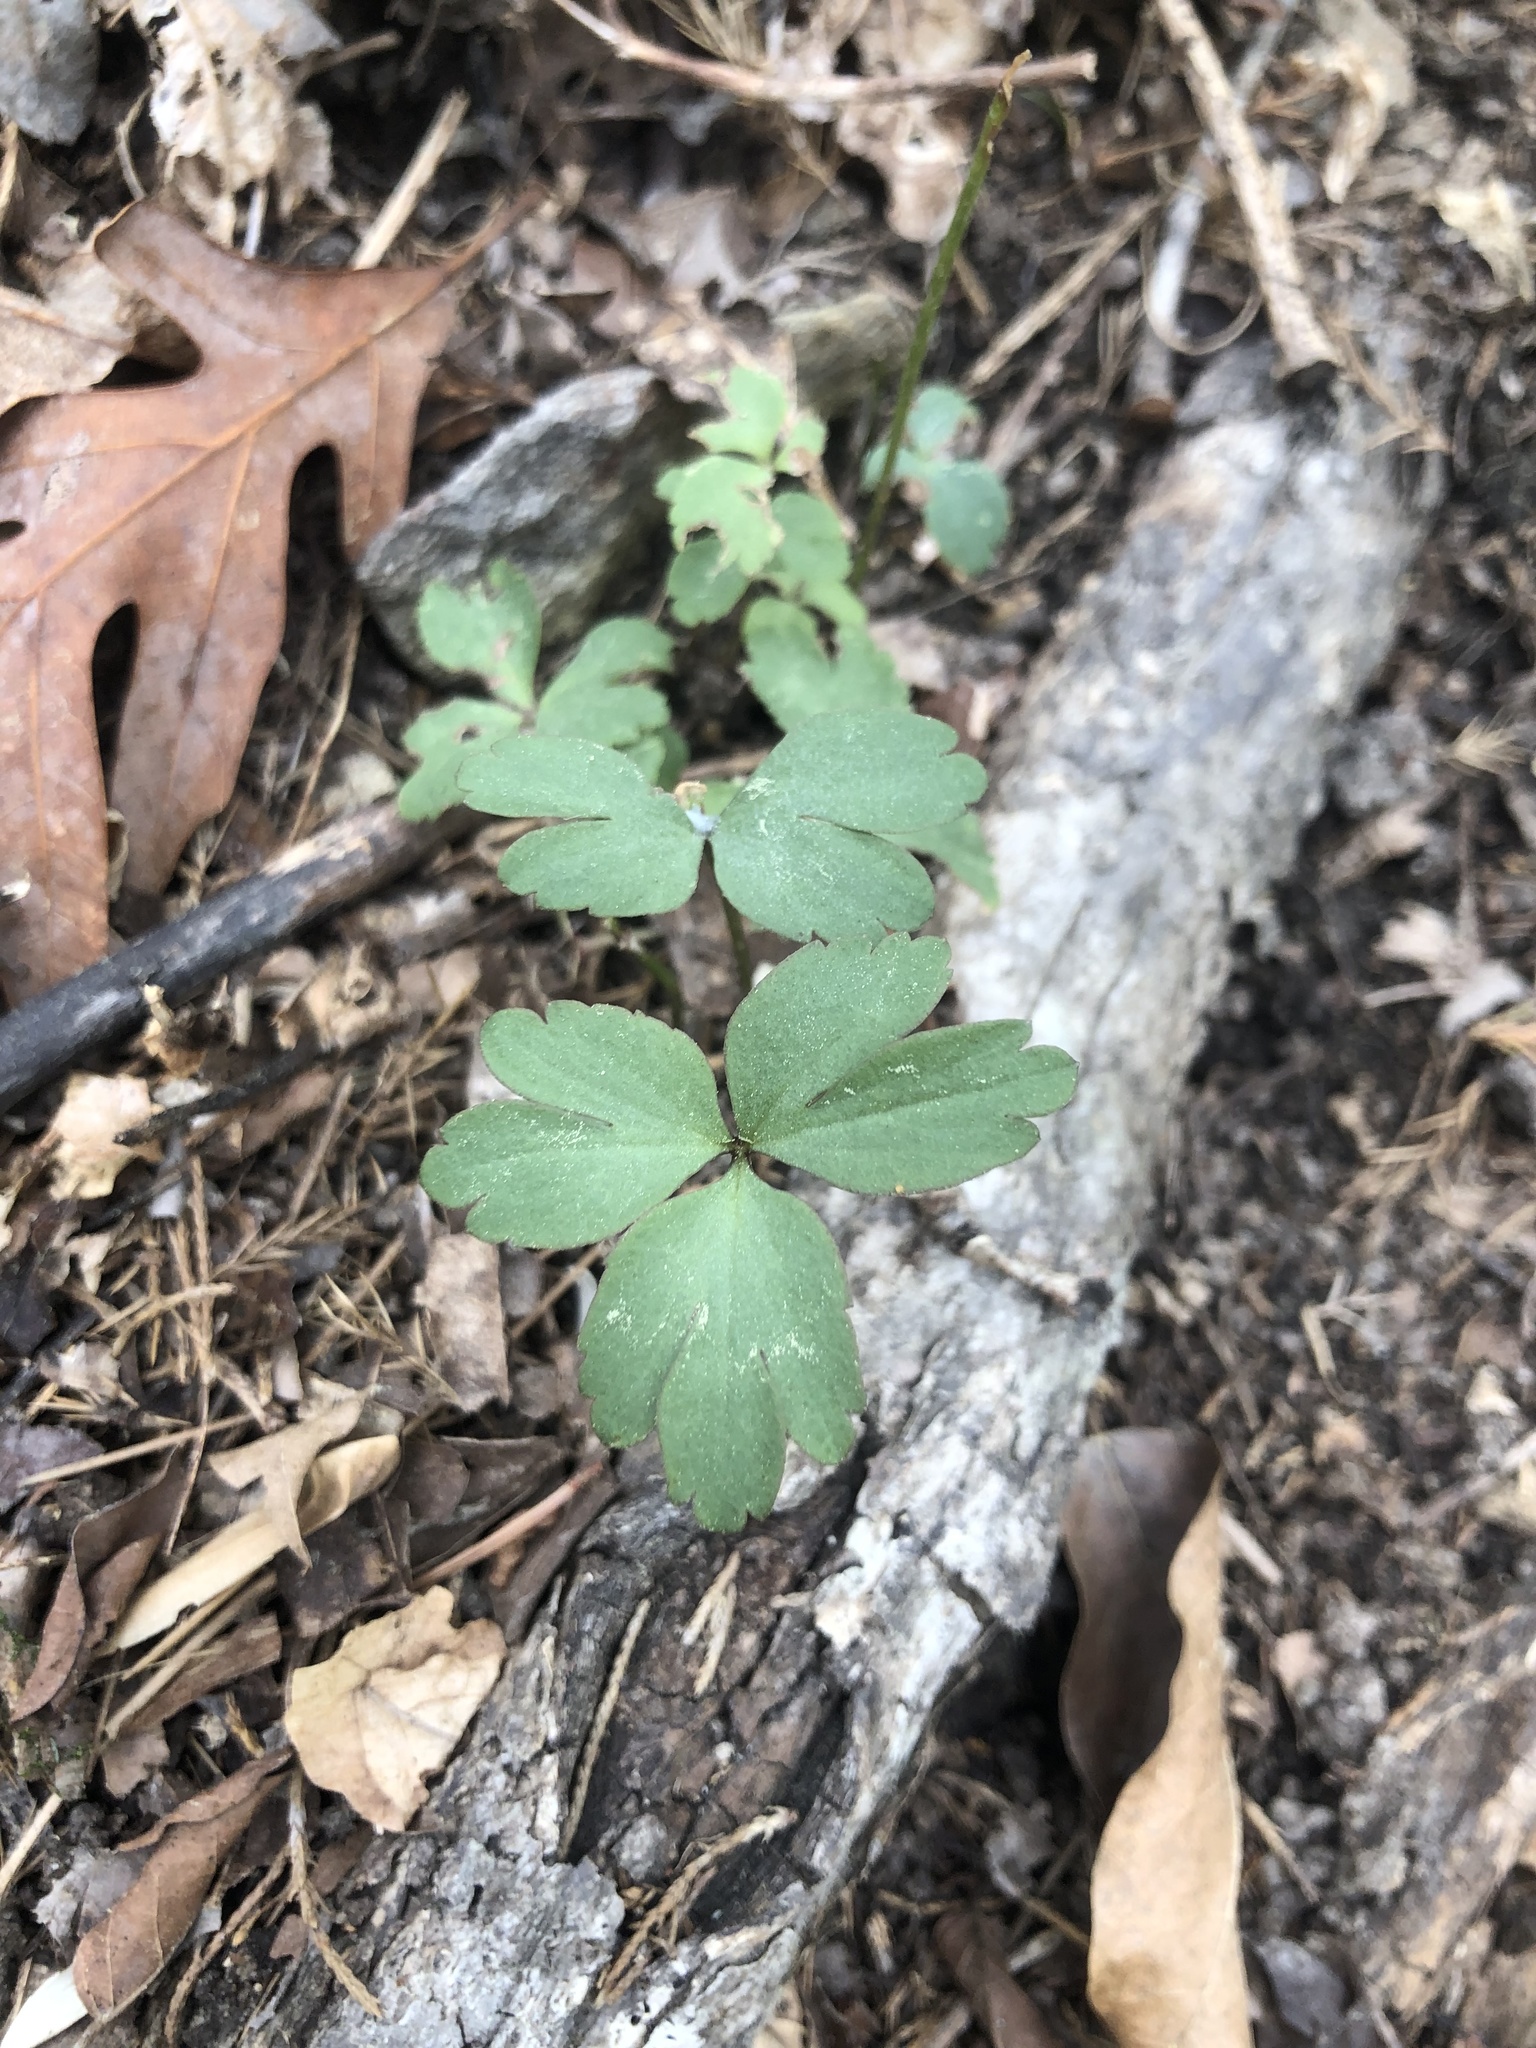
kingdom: Plantae
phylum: Tracheophyta
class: Magnoliopsida
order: Ranunculales
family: Ranunculaceae
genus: Anemone
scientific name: Anemone berlandieri
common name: Ten-petal anemone
